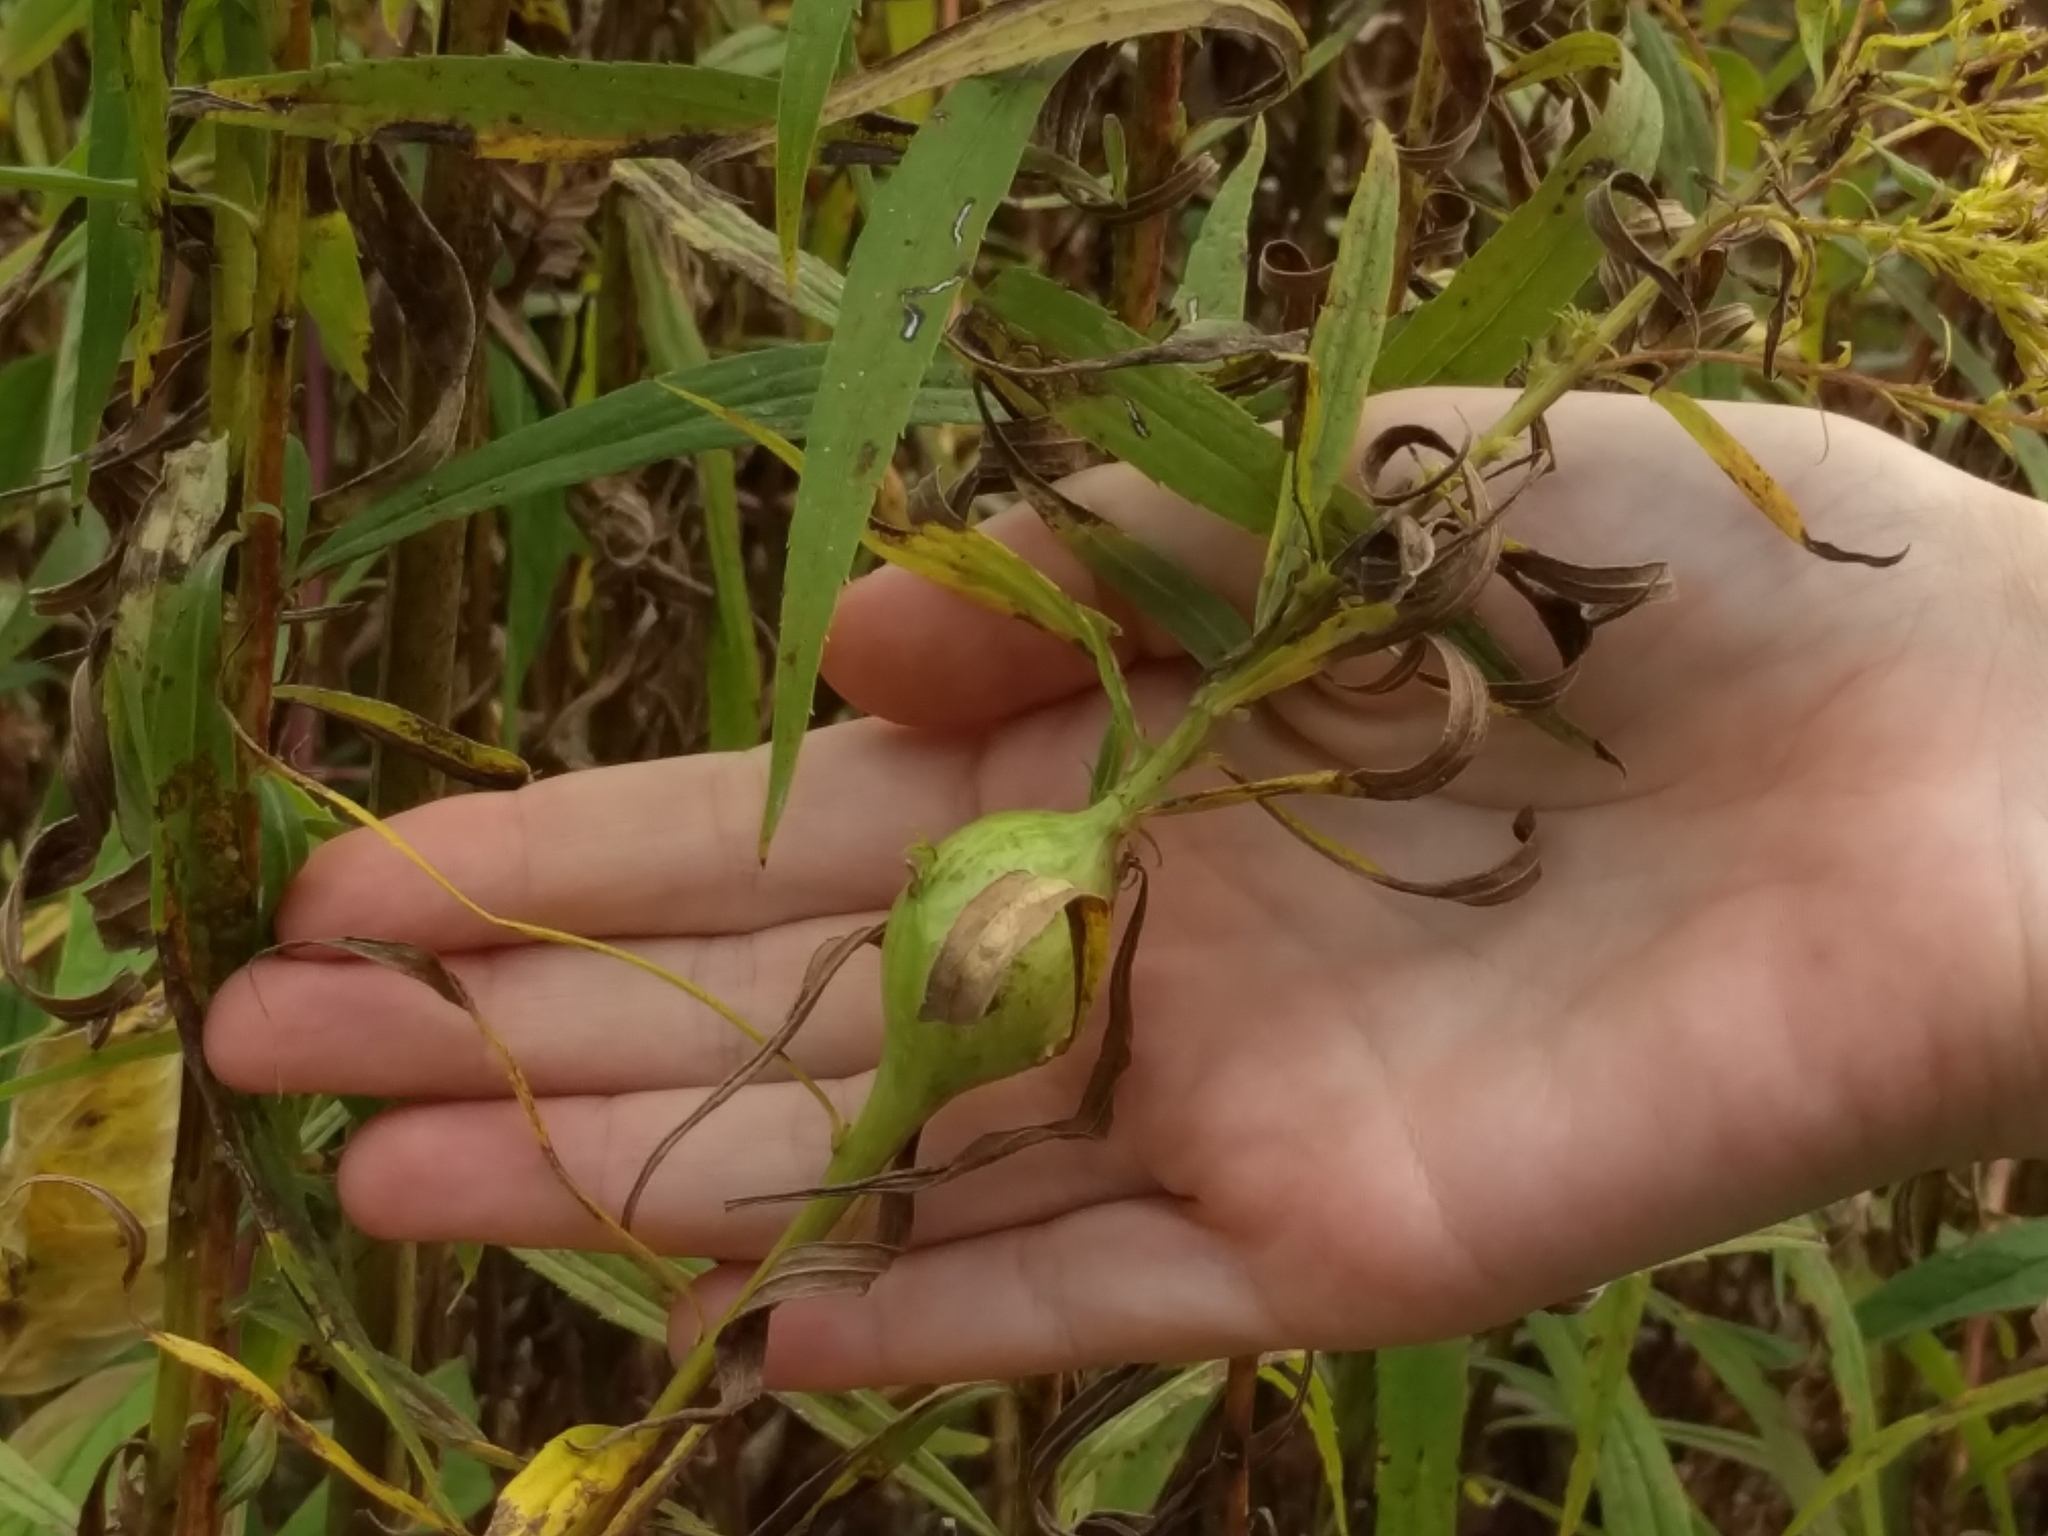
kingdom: Animalia
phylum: Arthropoda
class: Insecta
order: Diptera
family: Tephritidae
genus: Eurosta
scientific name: Eurosta solidaginis
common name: Goldenrod gall fly
